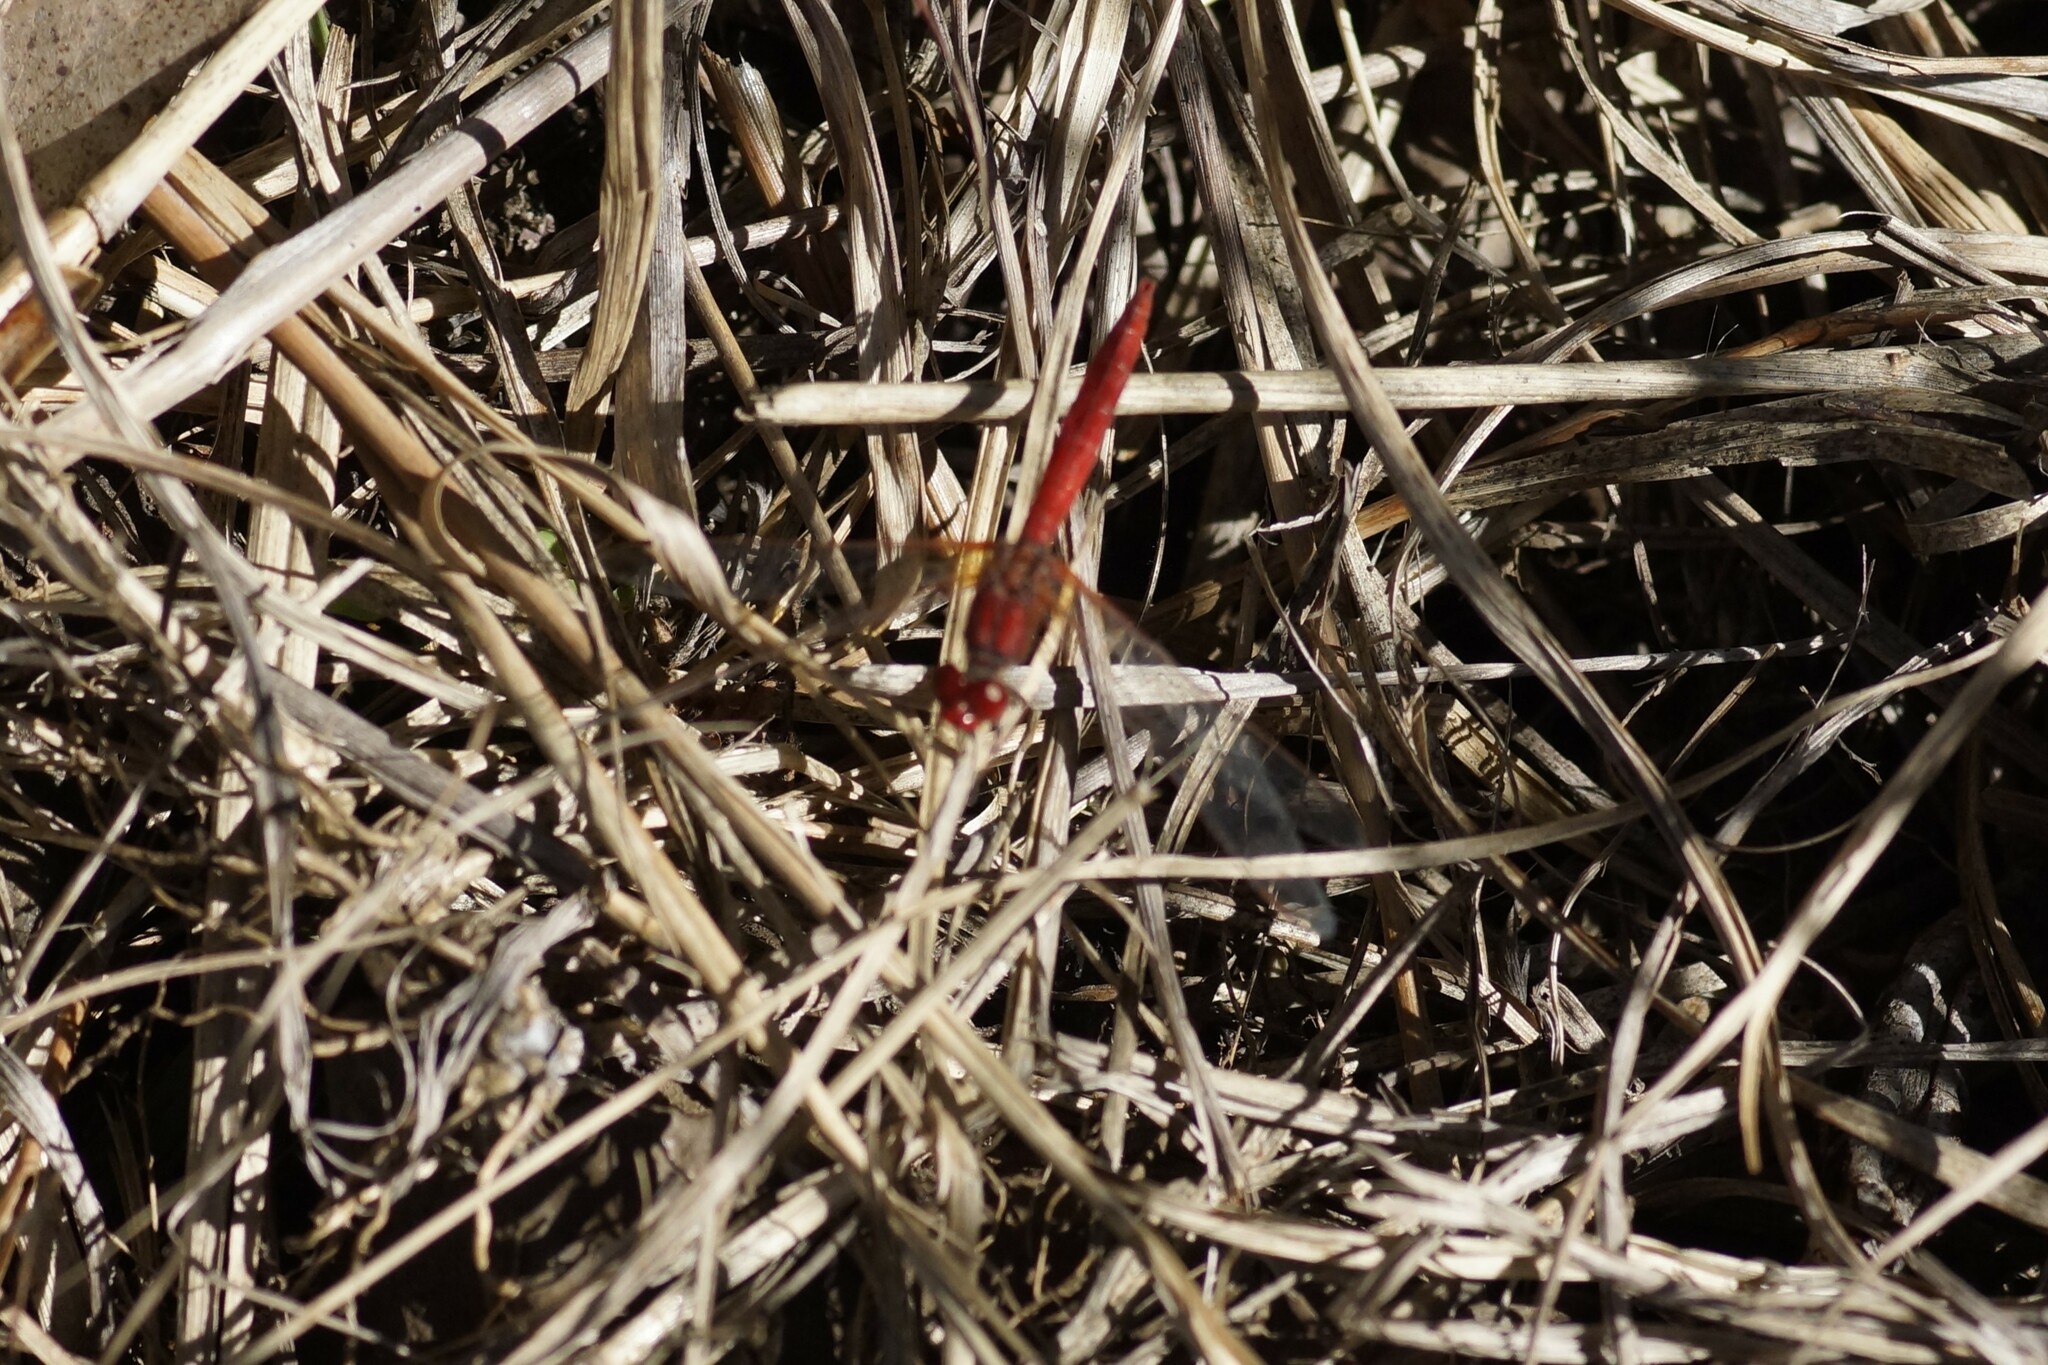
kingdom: Animalia
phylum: Arthropoda
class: Insecta
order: Odonata
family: Libellulidae
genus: Diplacodes
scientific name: Diplacodes haematodes
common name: Scarlet percher
